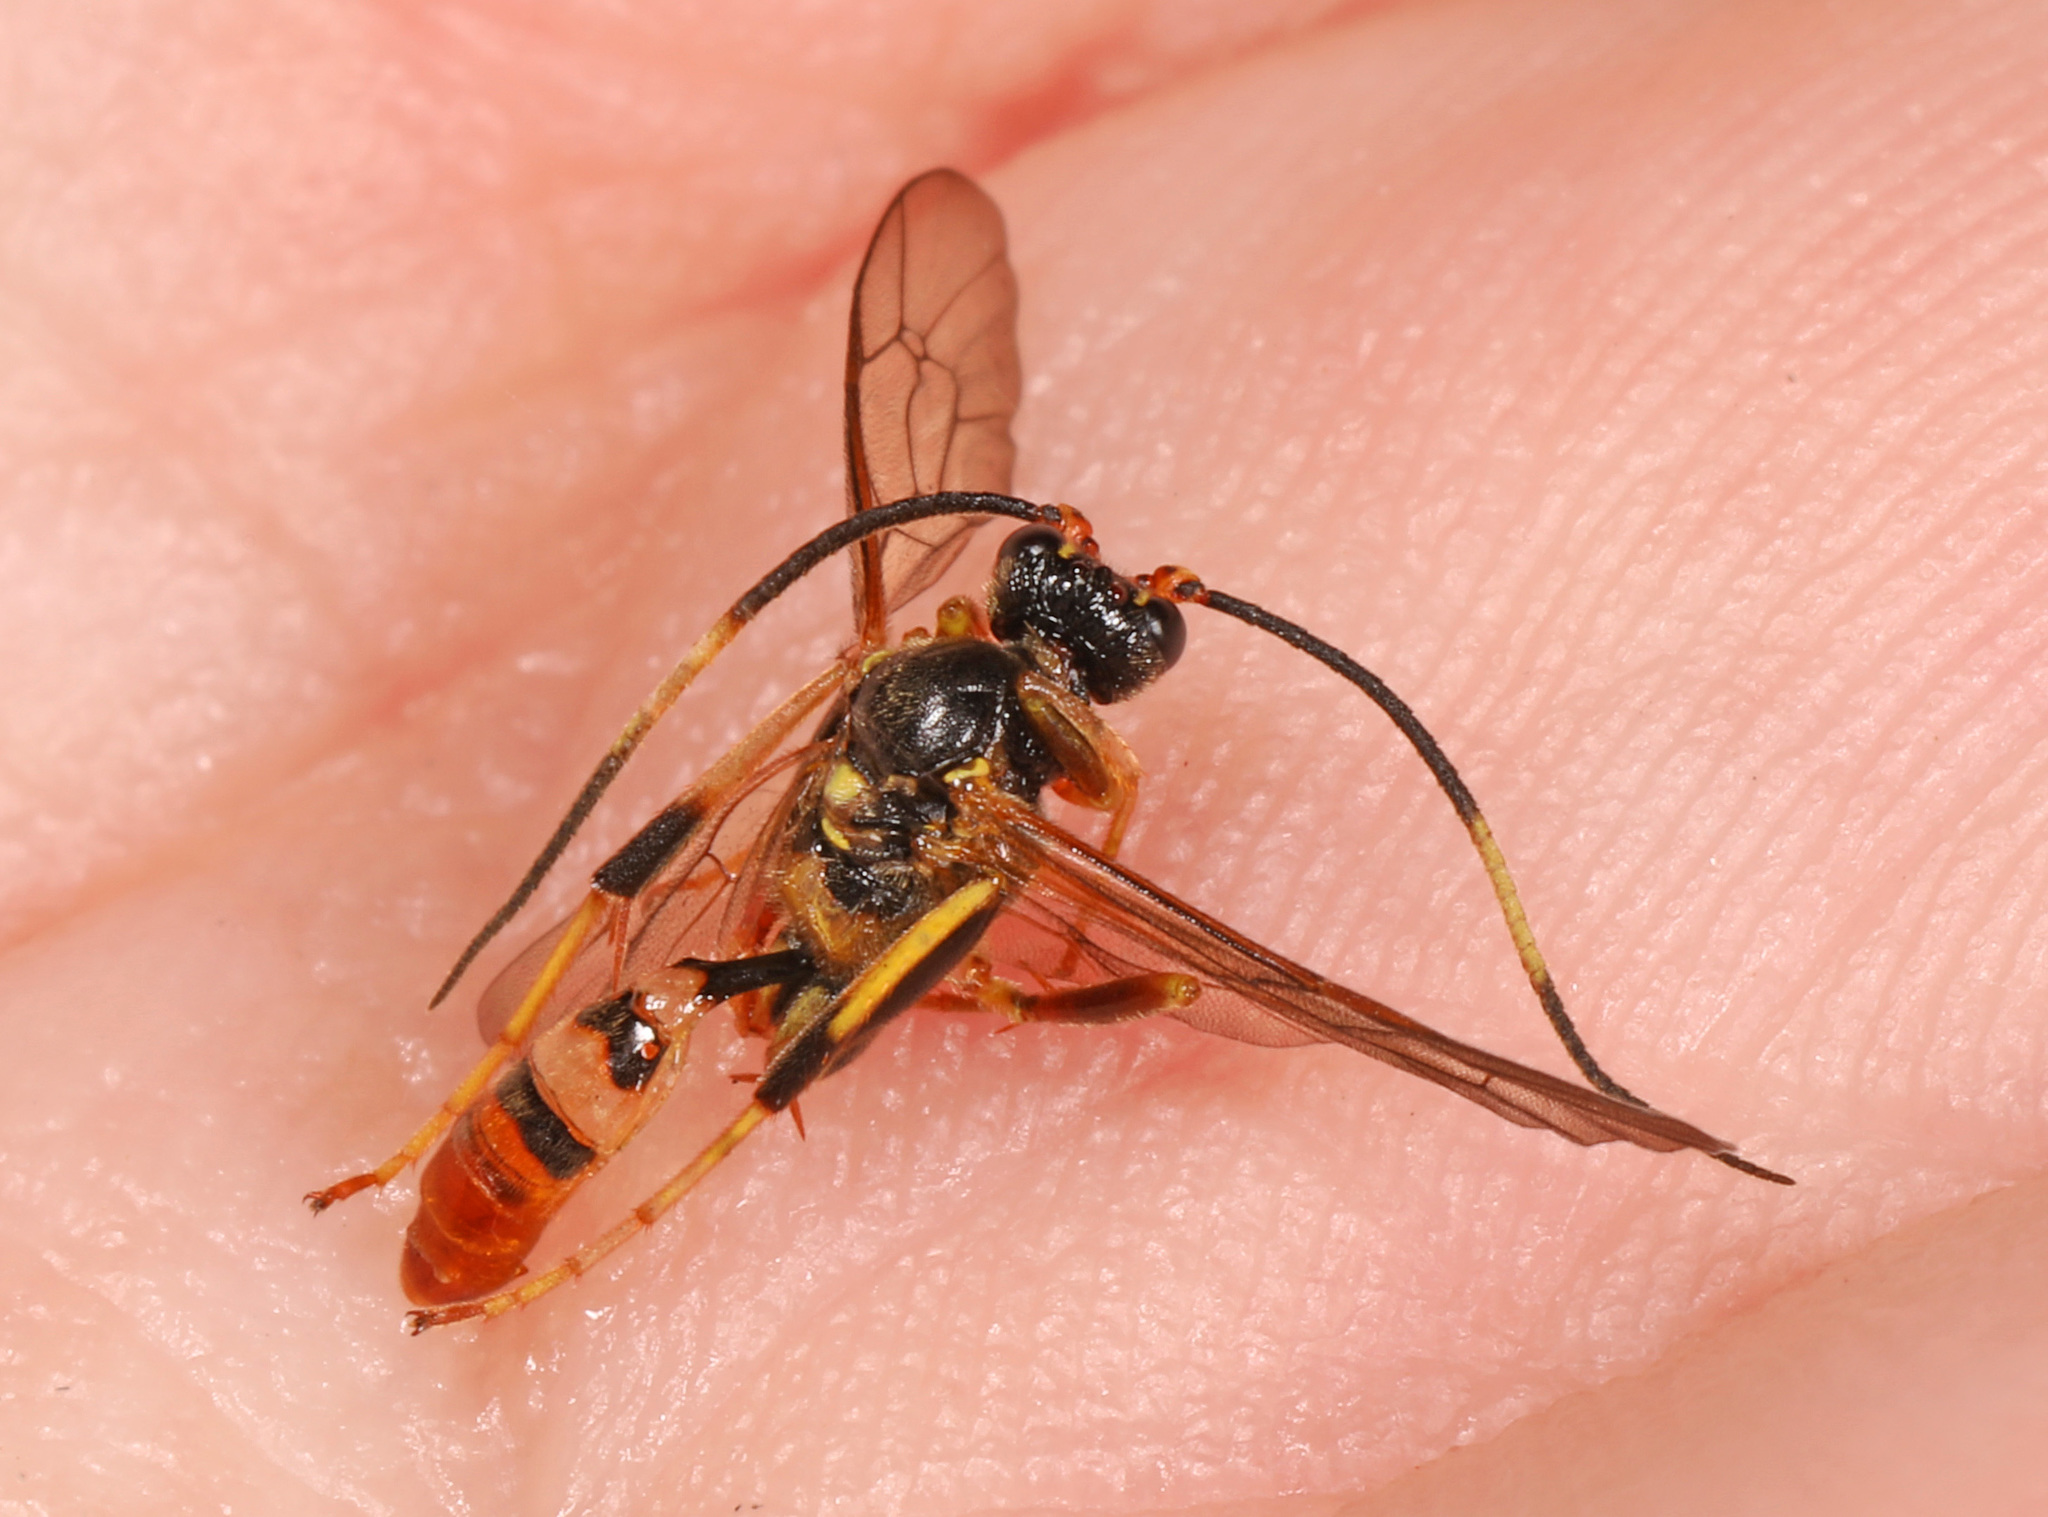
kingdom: Animalia
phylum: Arthropoda
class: Insecta
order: Hymenoptera
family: Ichneumonidae
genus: Polytribax
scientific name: Polytribax contiguus
